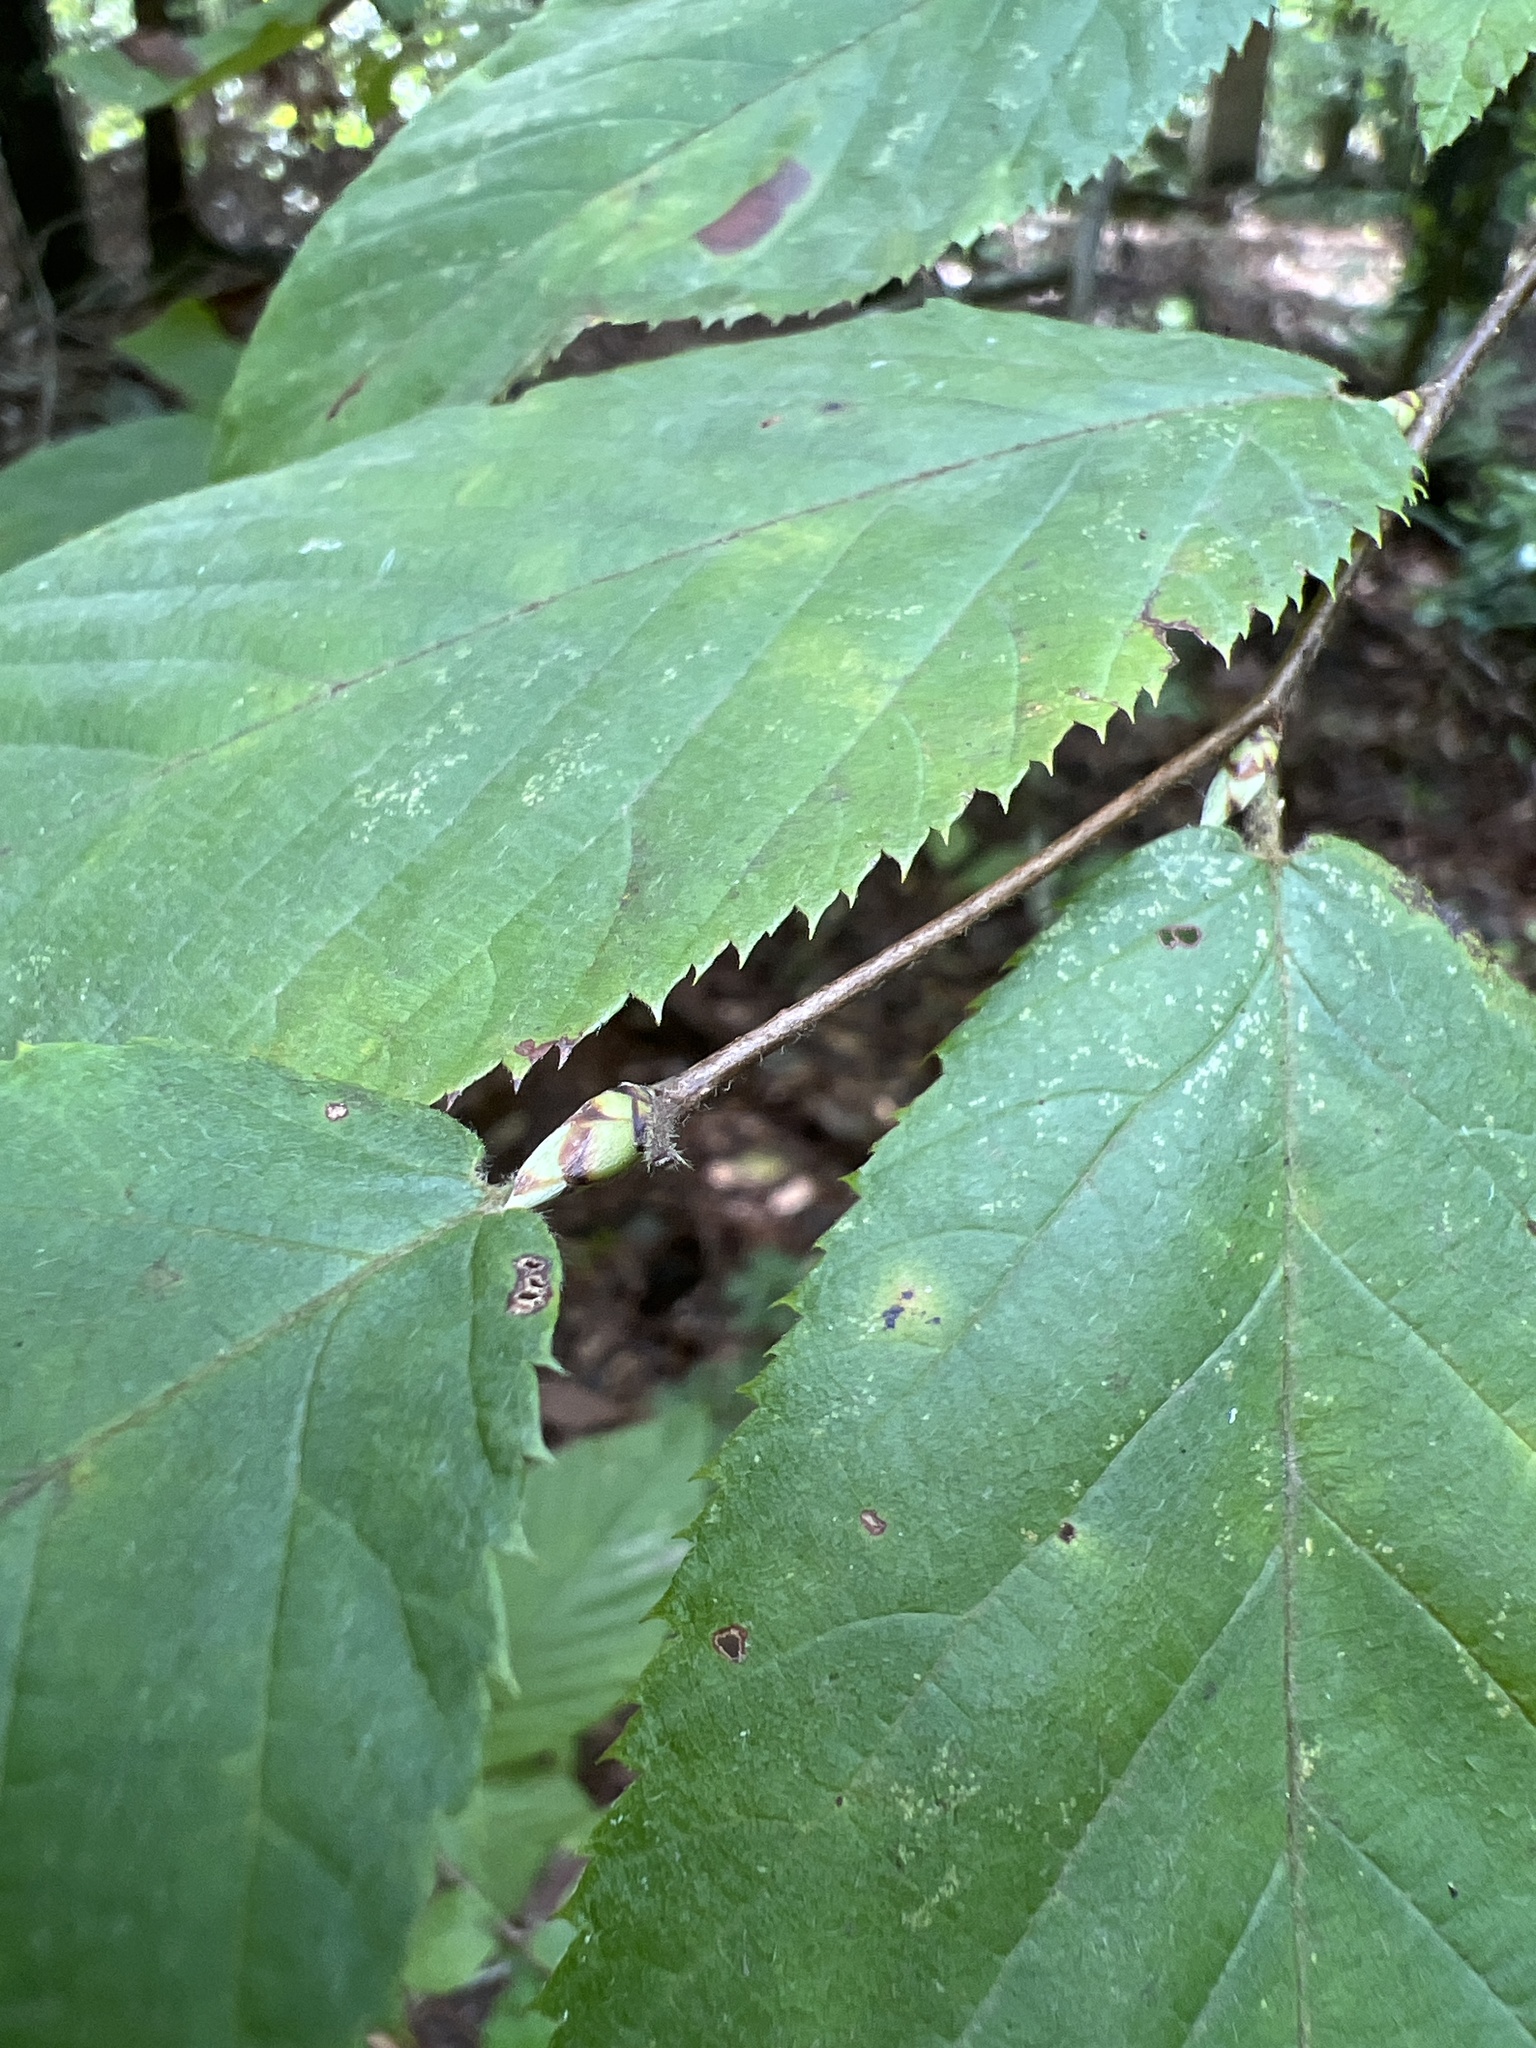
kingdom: Plantae
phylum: Tracheophyta
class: Magnoliopsida
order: Fagales
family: Betulaceae
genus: Ostrya
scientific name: Ostrya virginiana
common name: Ironwood
